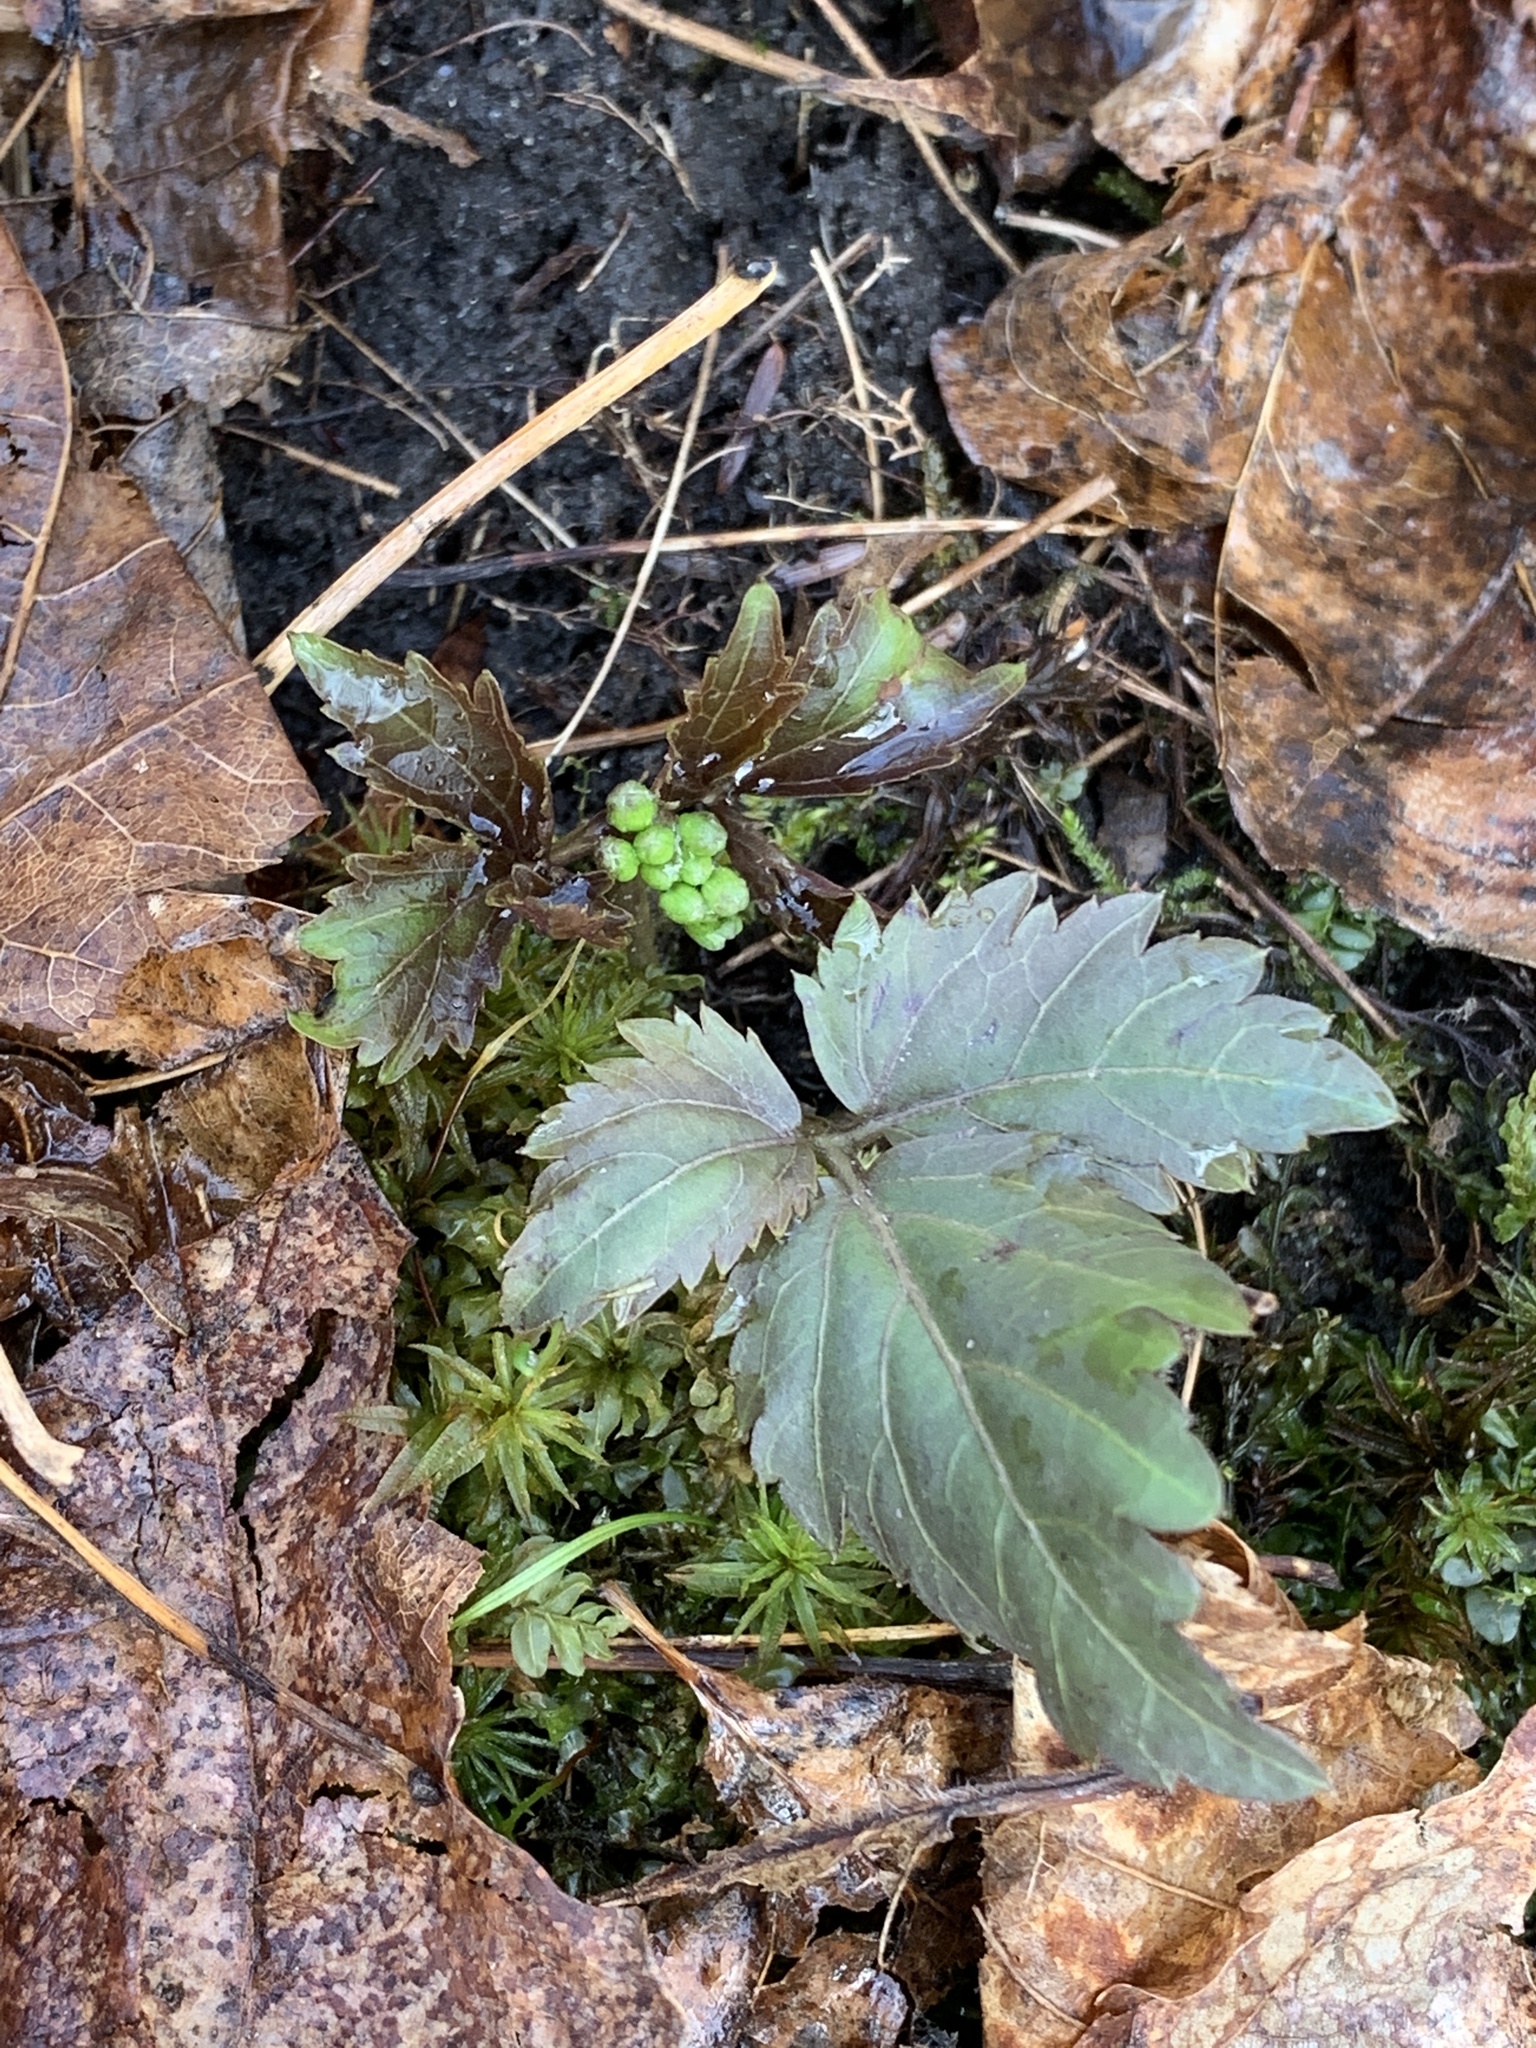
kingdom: Plantae
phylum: Tracheophyta
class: Magnoliopsida
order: Brassicales
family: Brassicaceae
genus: Cardamine
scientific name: Cardamine diphylla
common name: Broad-leaved toothwort
